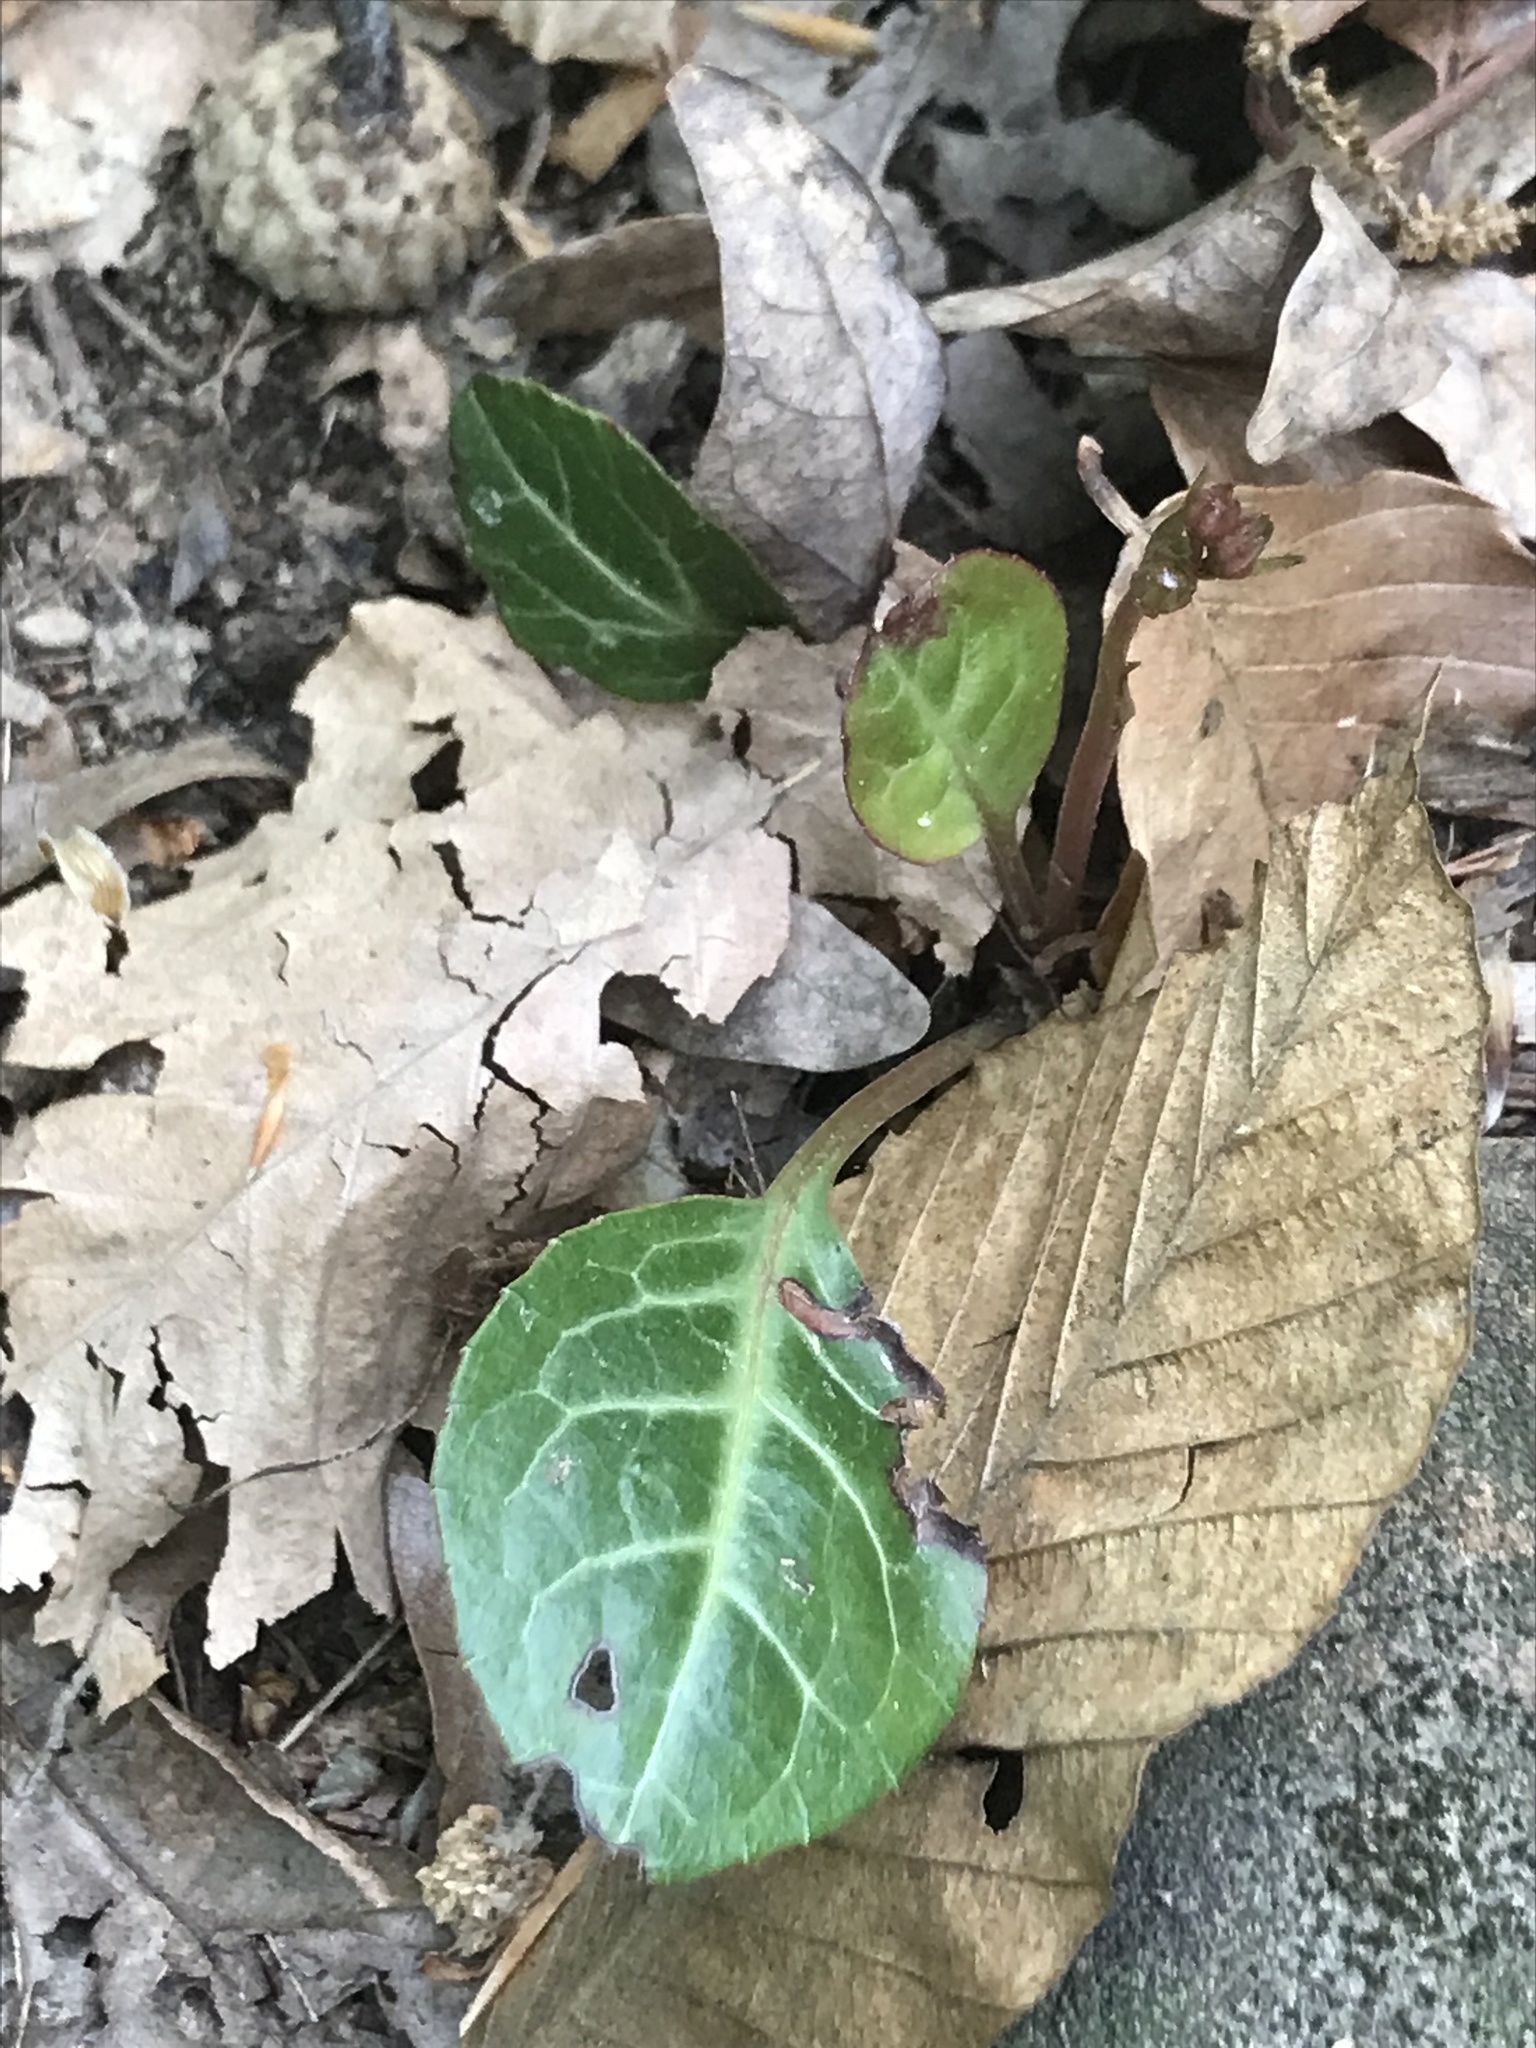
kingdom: Plantae
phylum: Tracheophyta
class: Magnoliopsida
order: Ericales
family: Ericaceae
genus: Pyrola
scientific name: Pyrola americana
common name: American wintergreen
